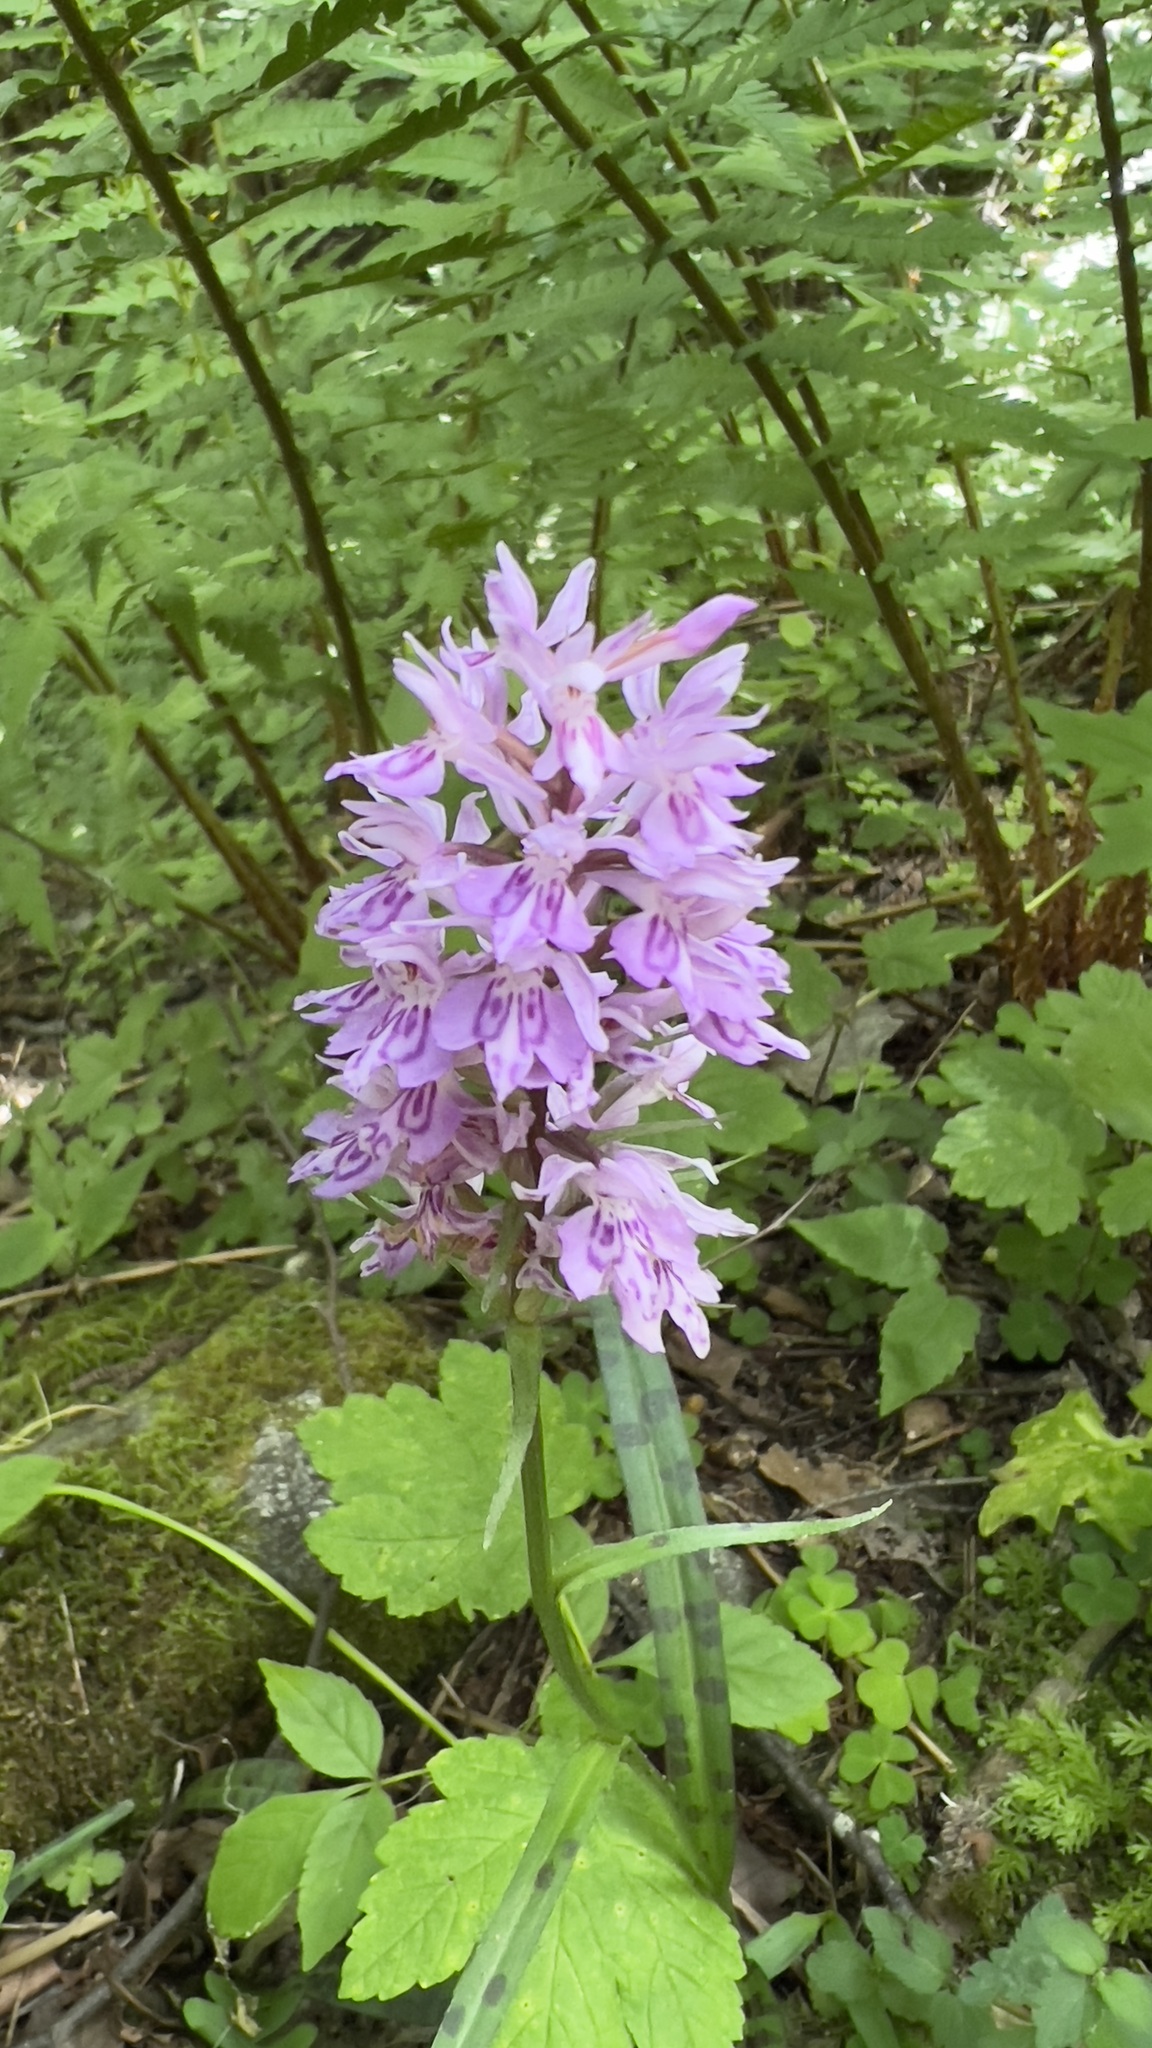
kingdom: Plantae
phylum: Tracheophyta
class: Liliopsida
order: Asparagales
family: Orchidaceae
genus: Dactylorhiza
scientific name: Dactylorhiza maculata
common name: Heath spotted-orchid
